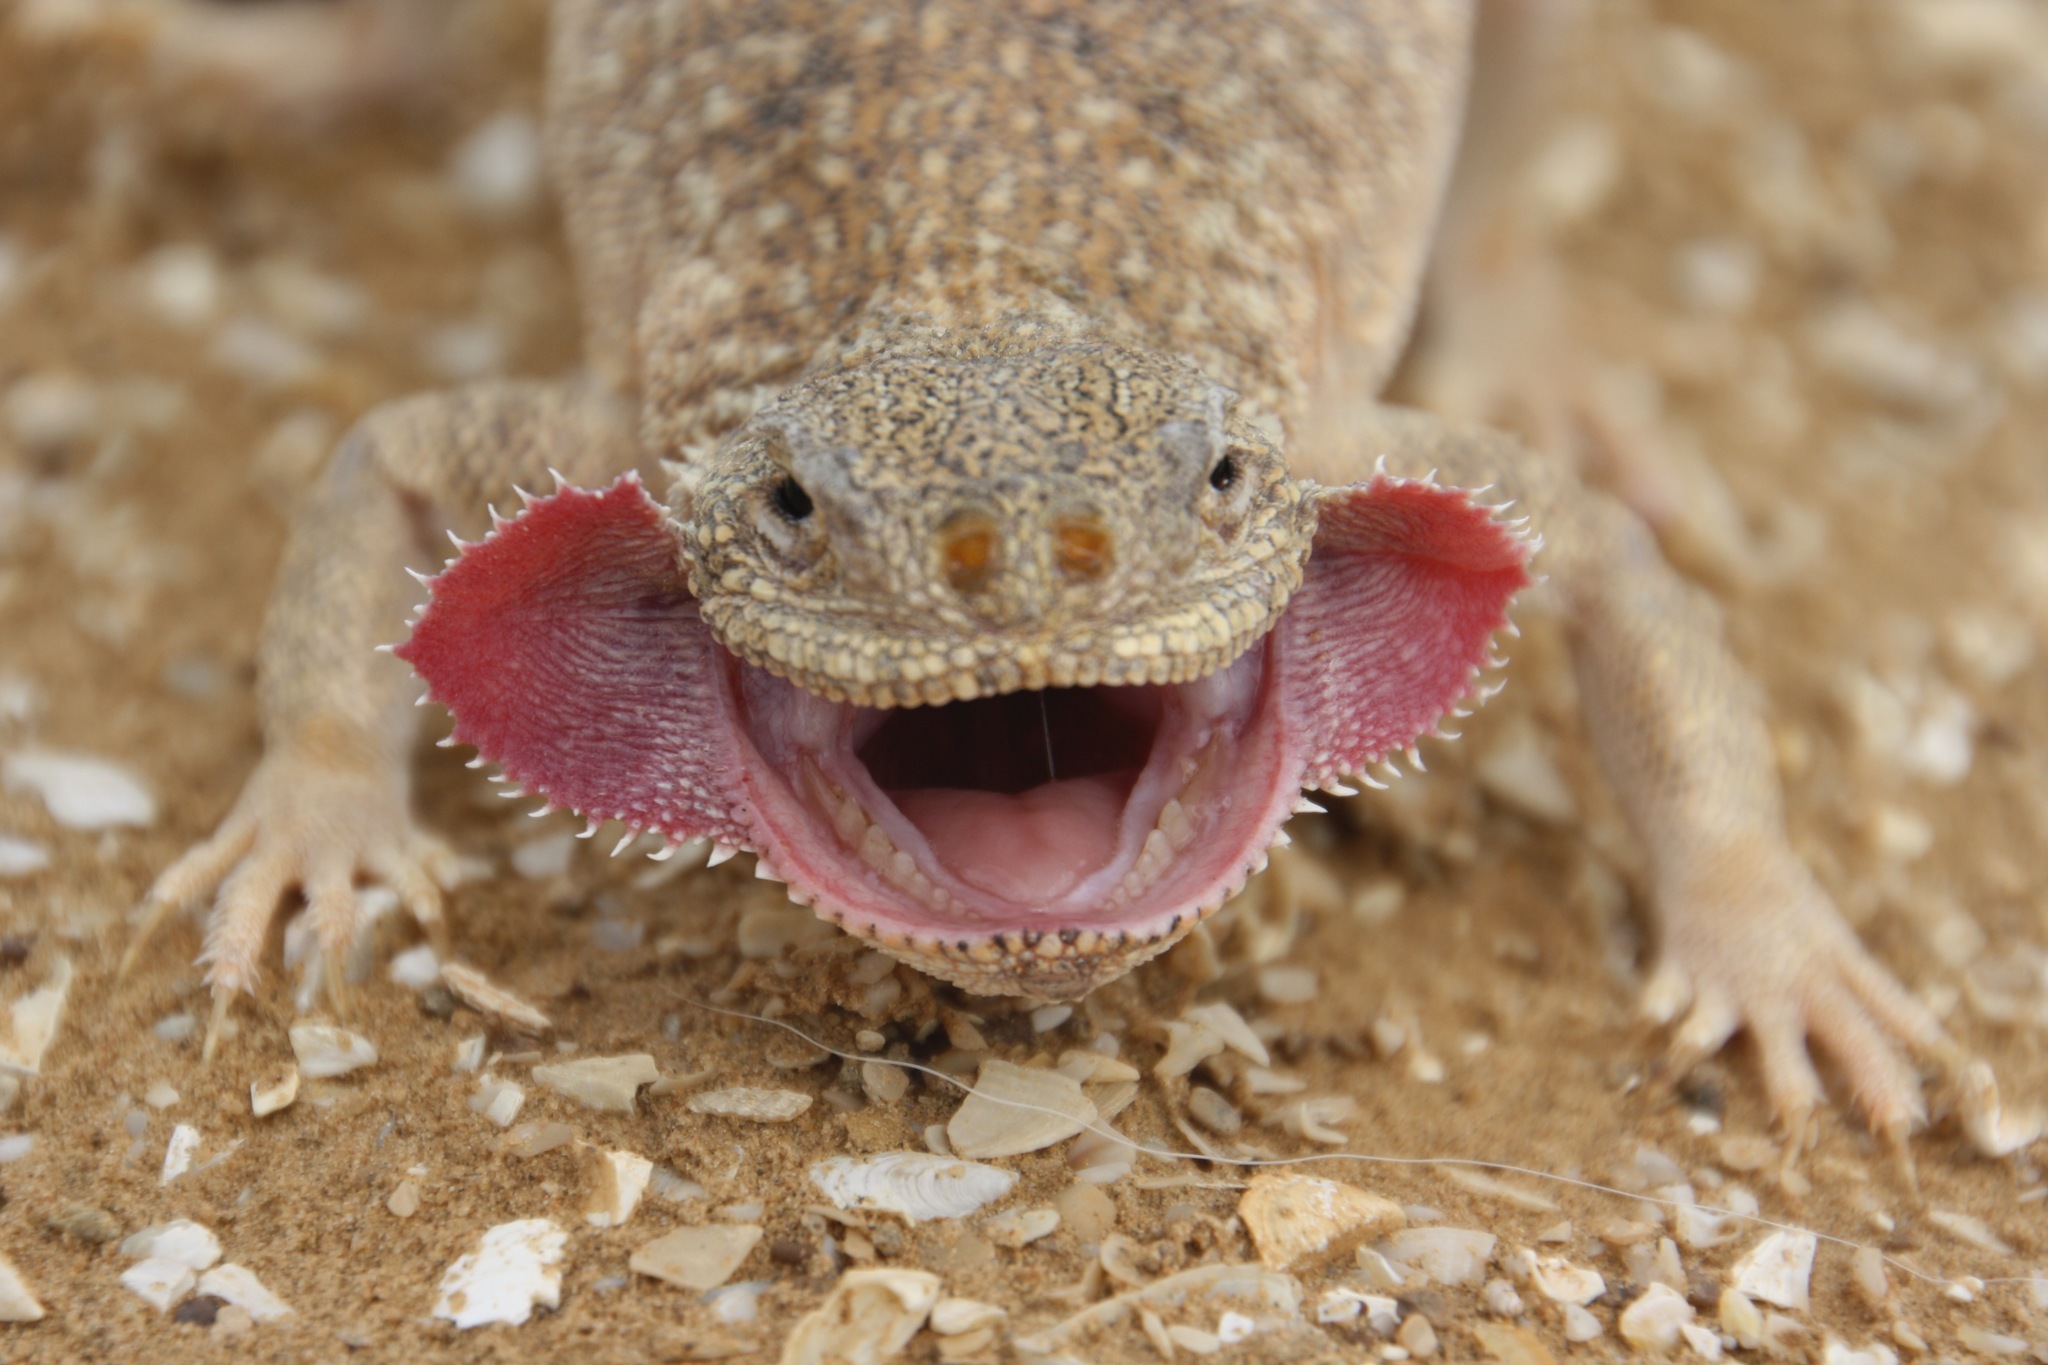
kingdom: Animalia
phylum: Chordata
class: Squamata
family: Agamidae
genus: Phrynocephalus
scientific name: Phrynocephalus mystaceus
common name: Secret toadhead agama
